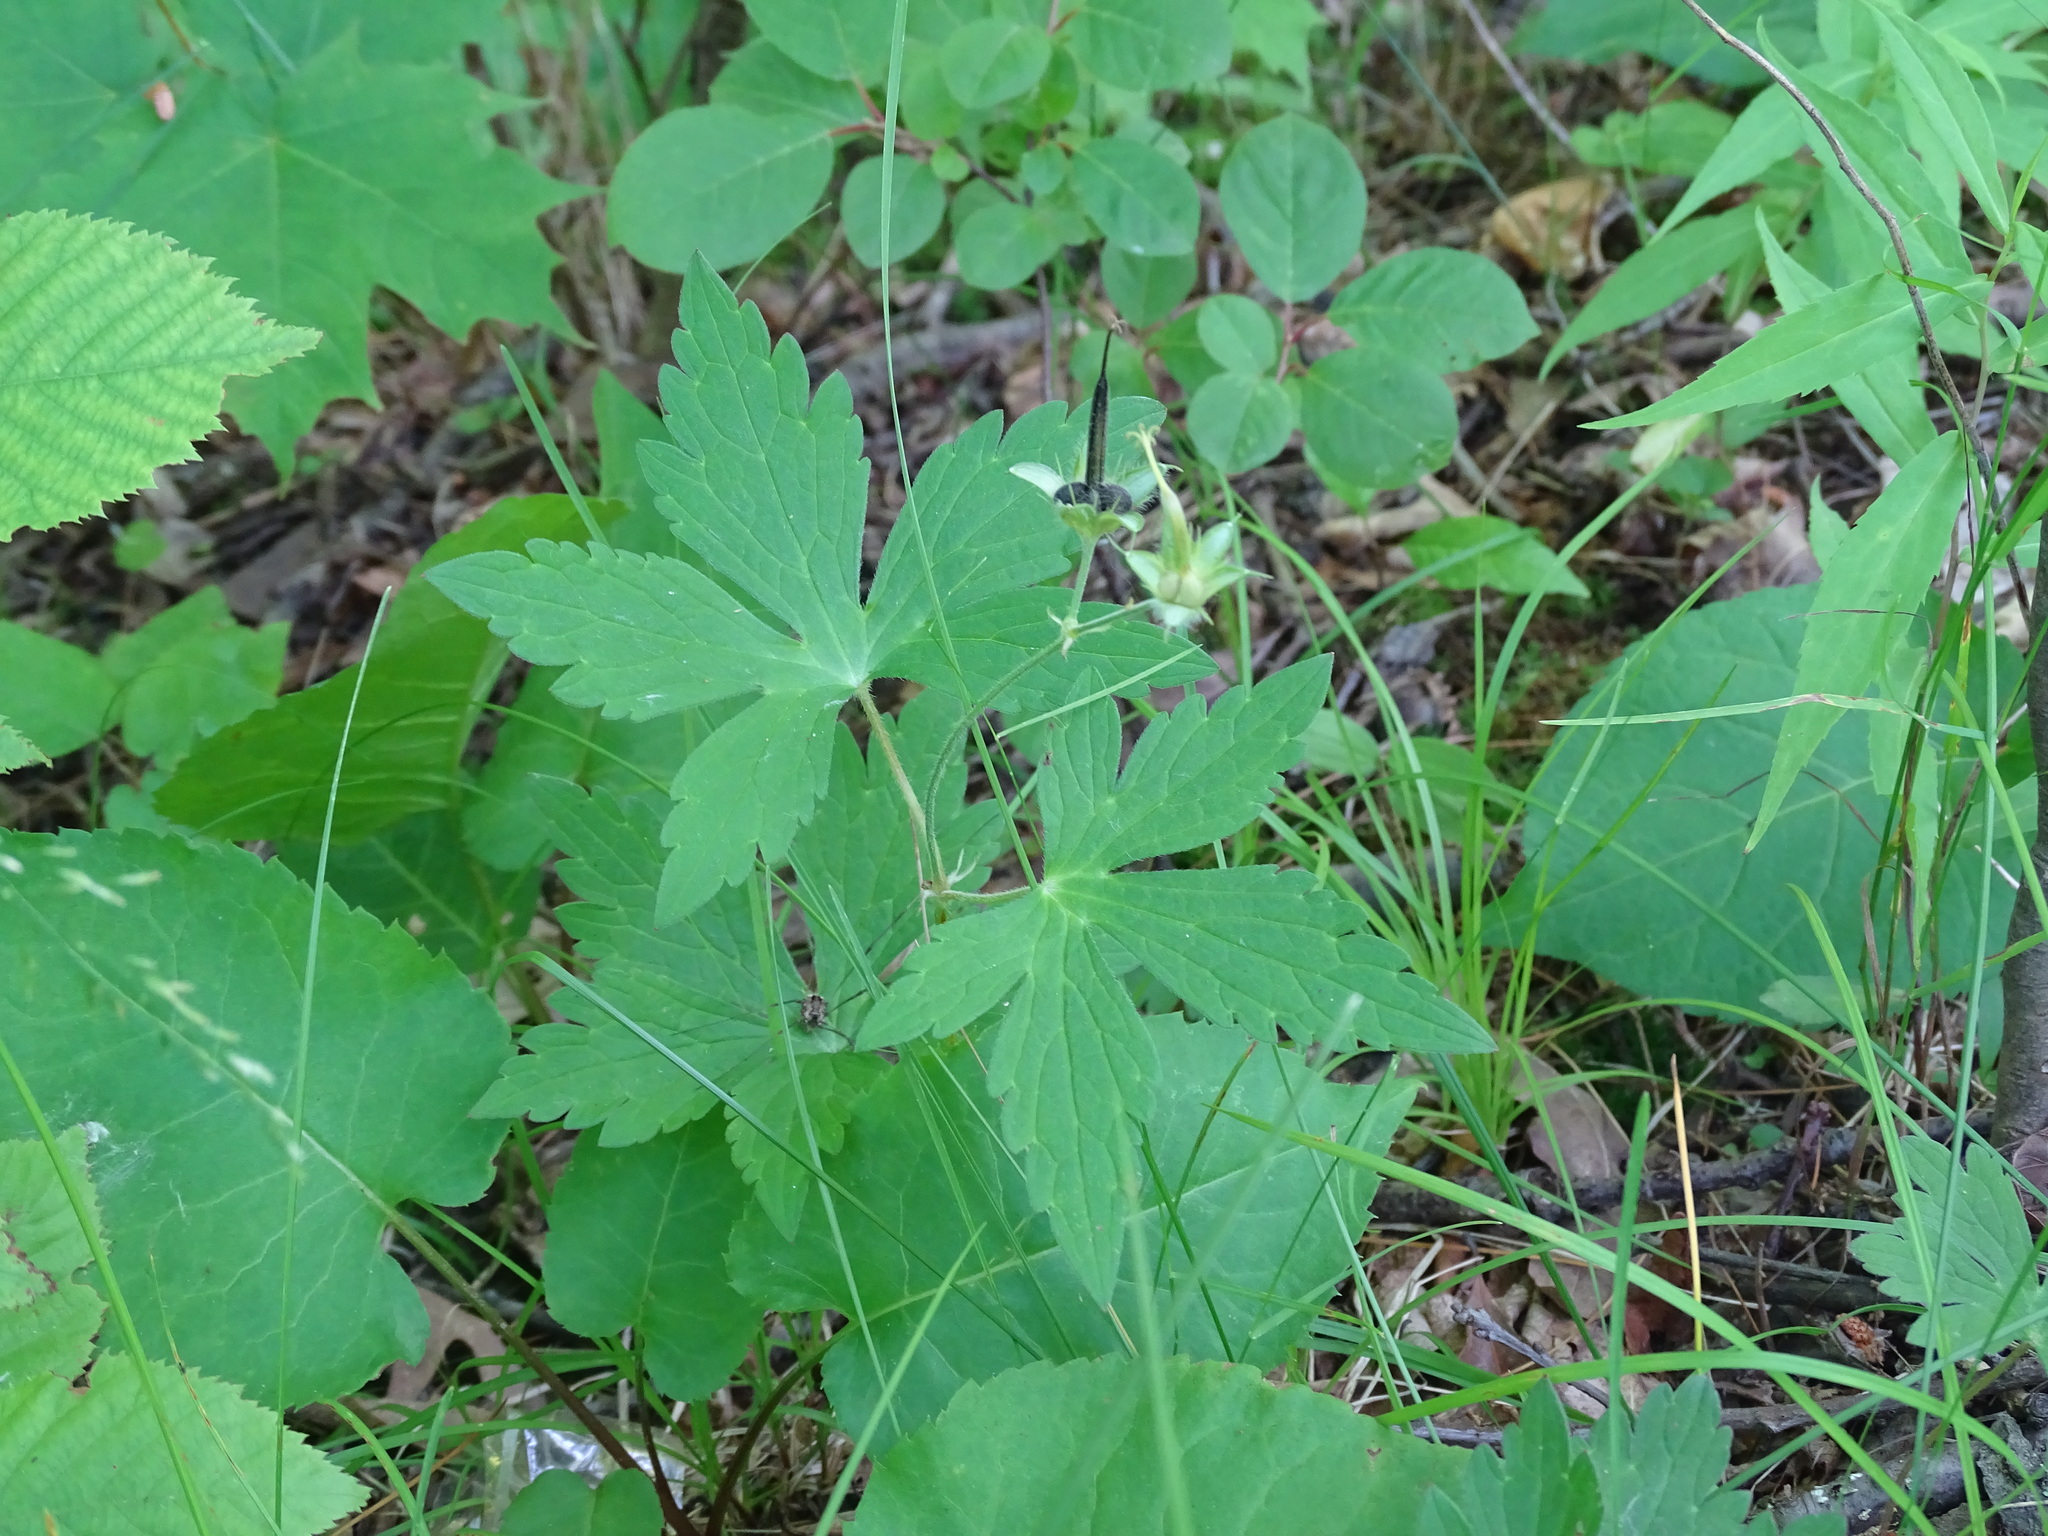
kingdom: Plantae
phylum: Tracheophyta
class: Magnoliopsida
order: Geraniales
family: Geraniaceae
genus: Geranium
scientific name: Geranium maculatum
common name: Spotted geranium
